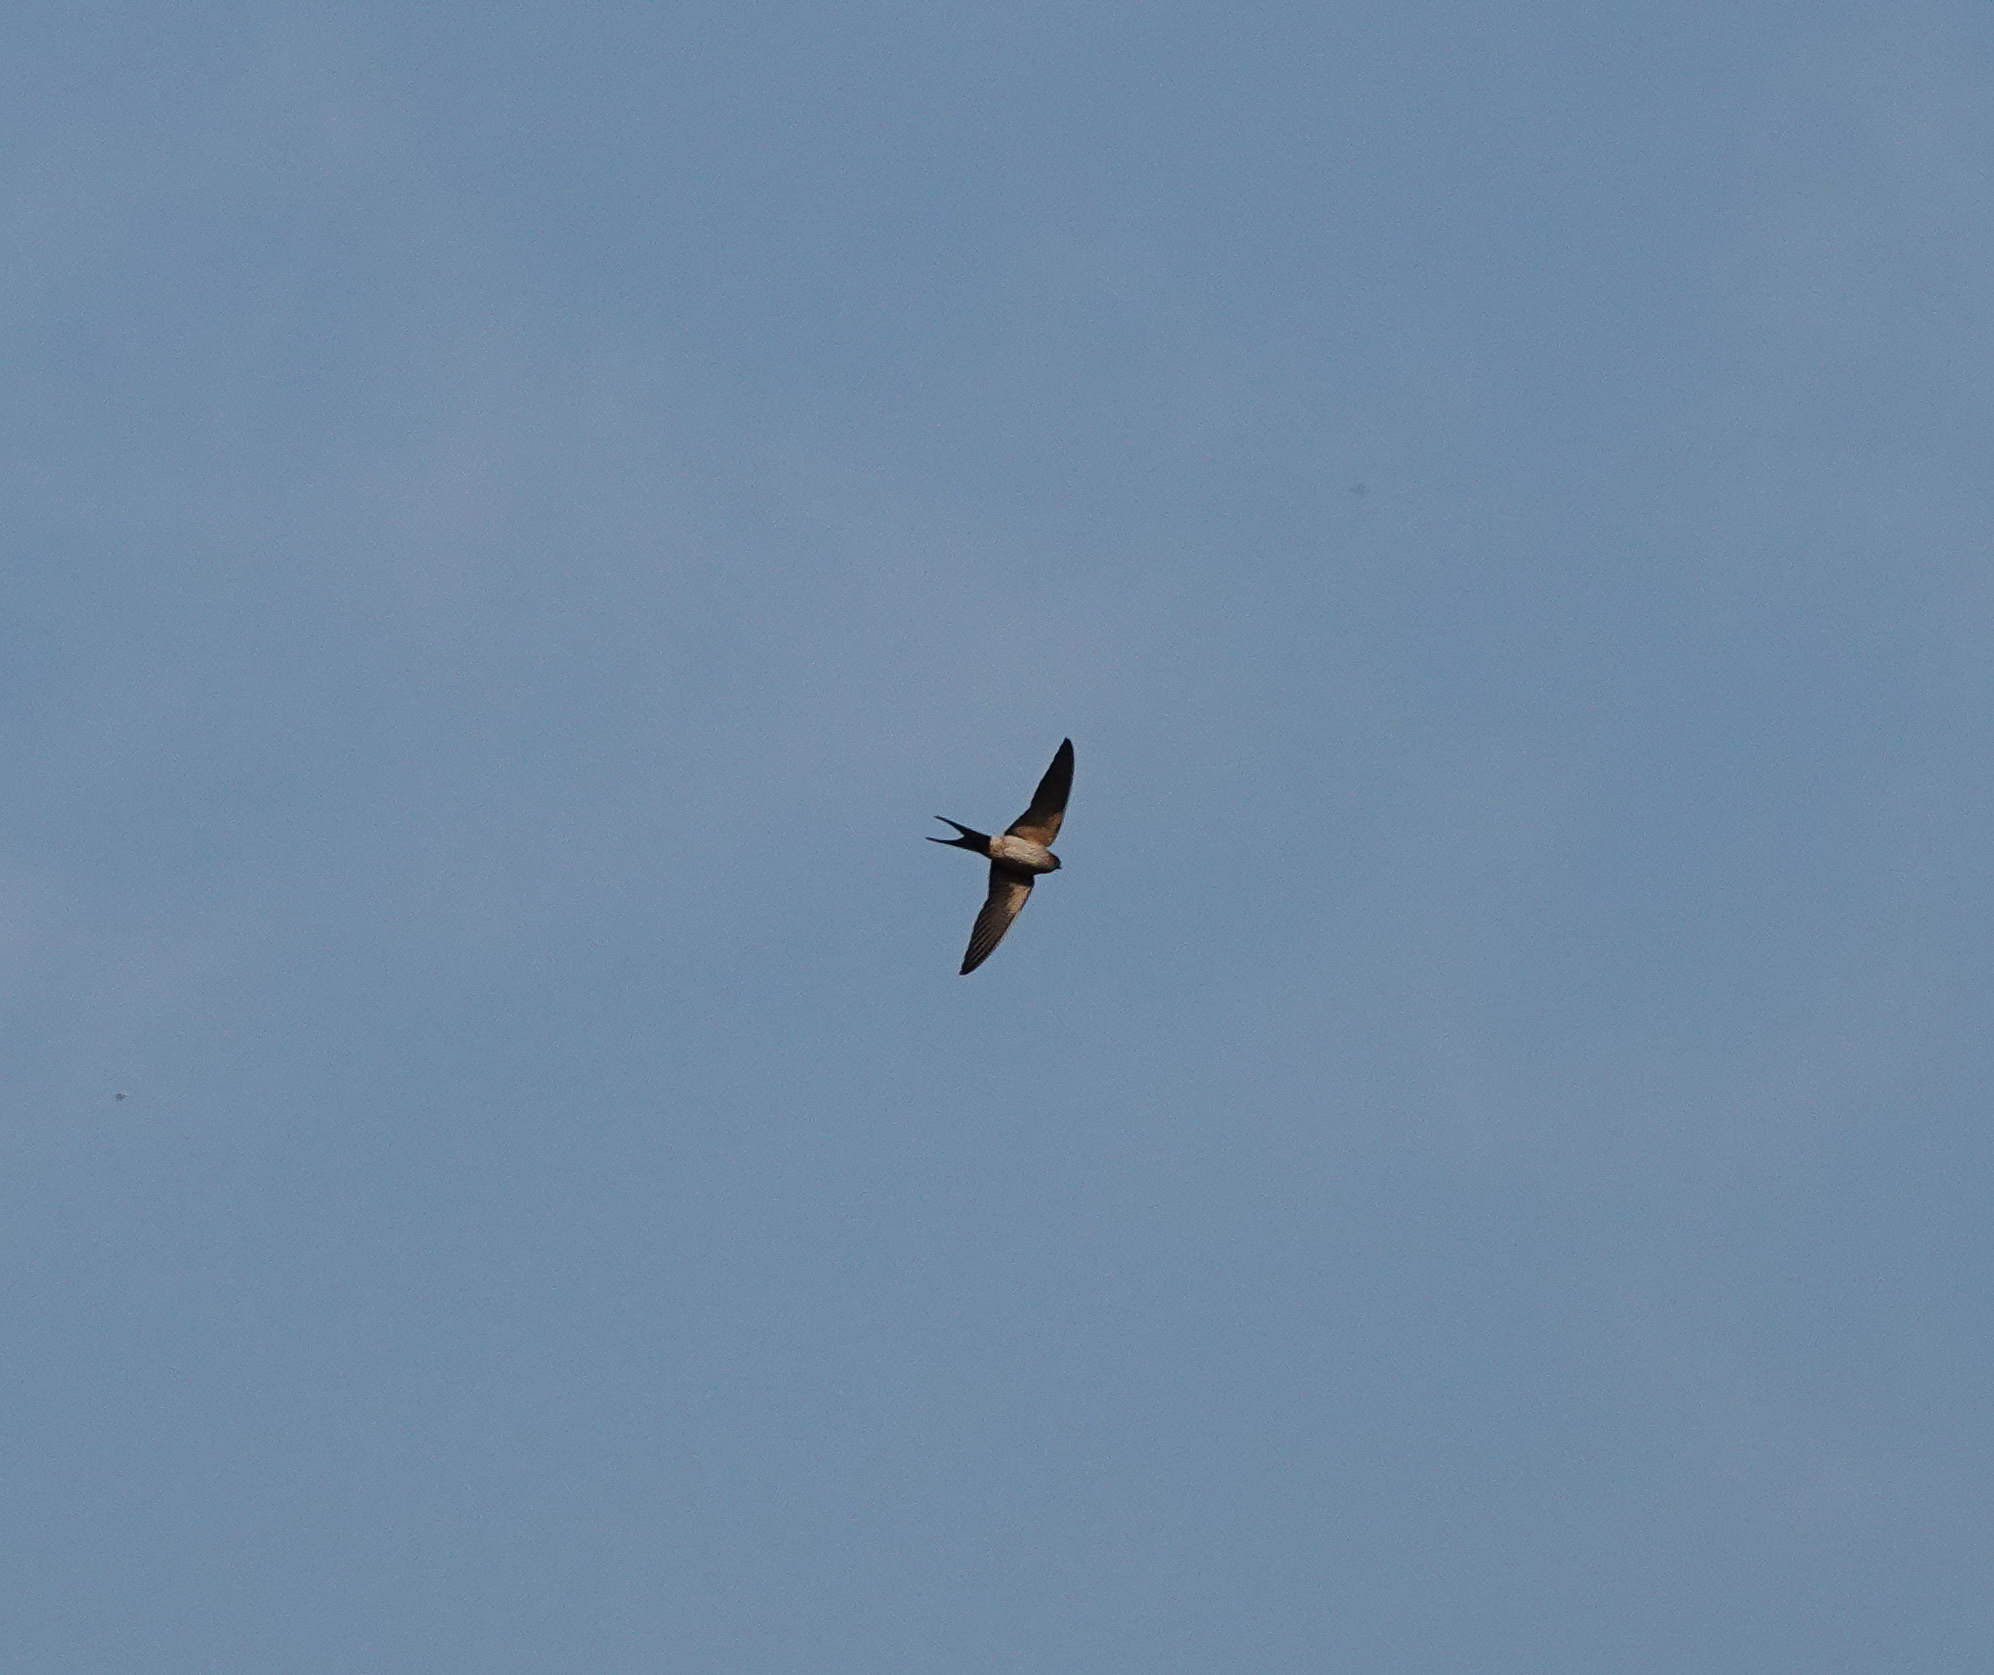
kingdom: Animalia
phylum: Chordata
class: Aves
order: Passeriformes
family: Hirundinidae
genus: Cecropis
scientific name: Cecropis daurica
